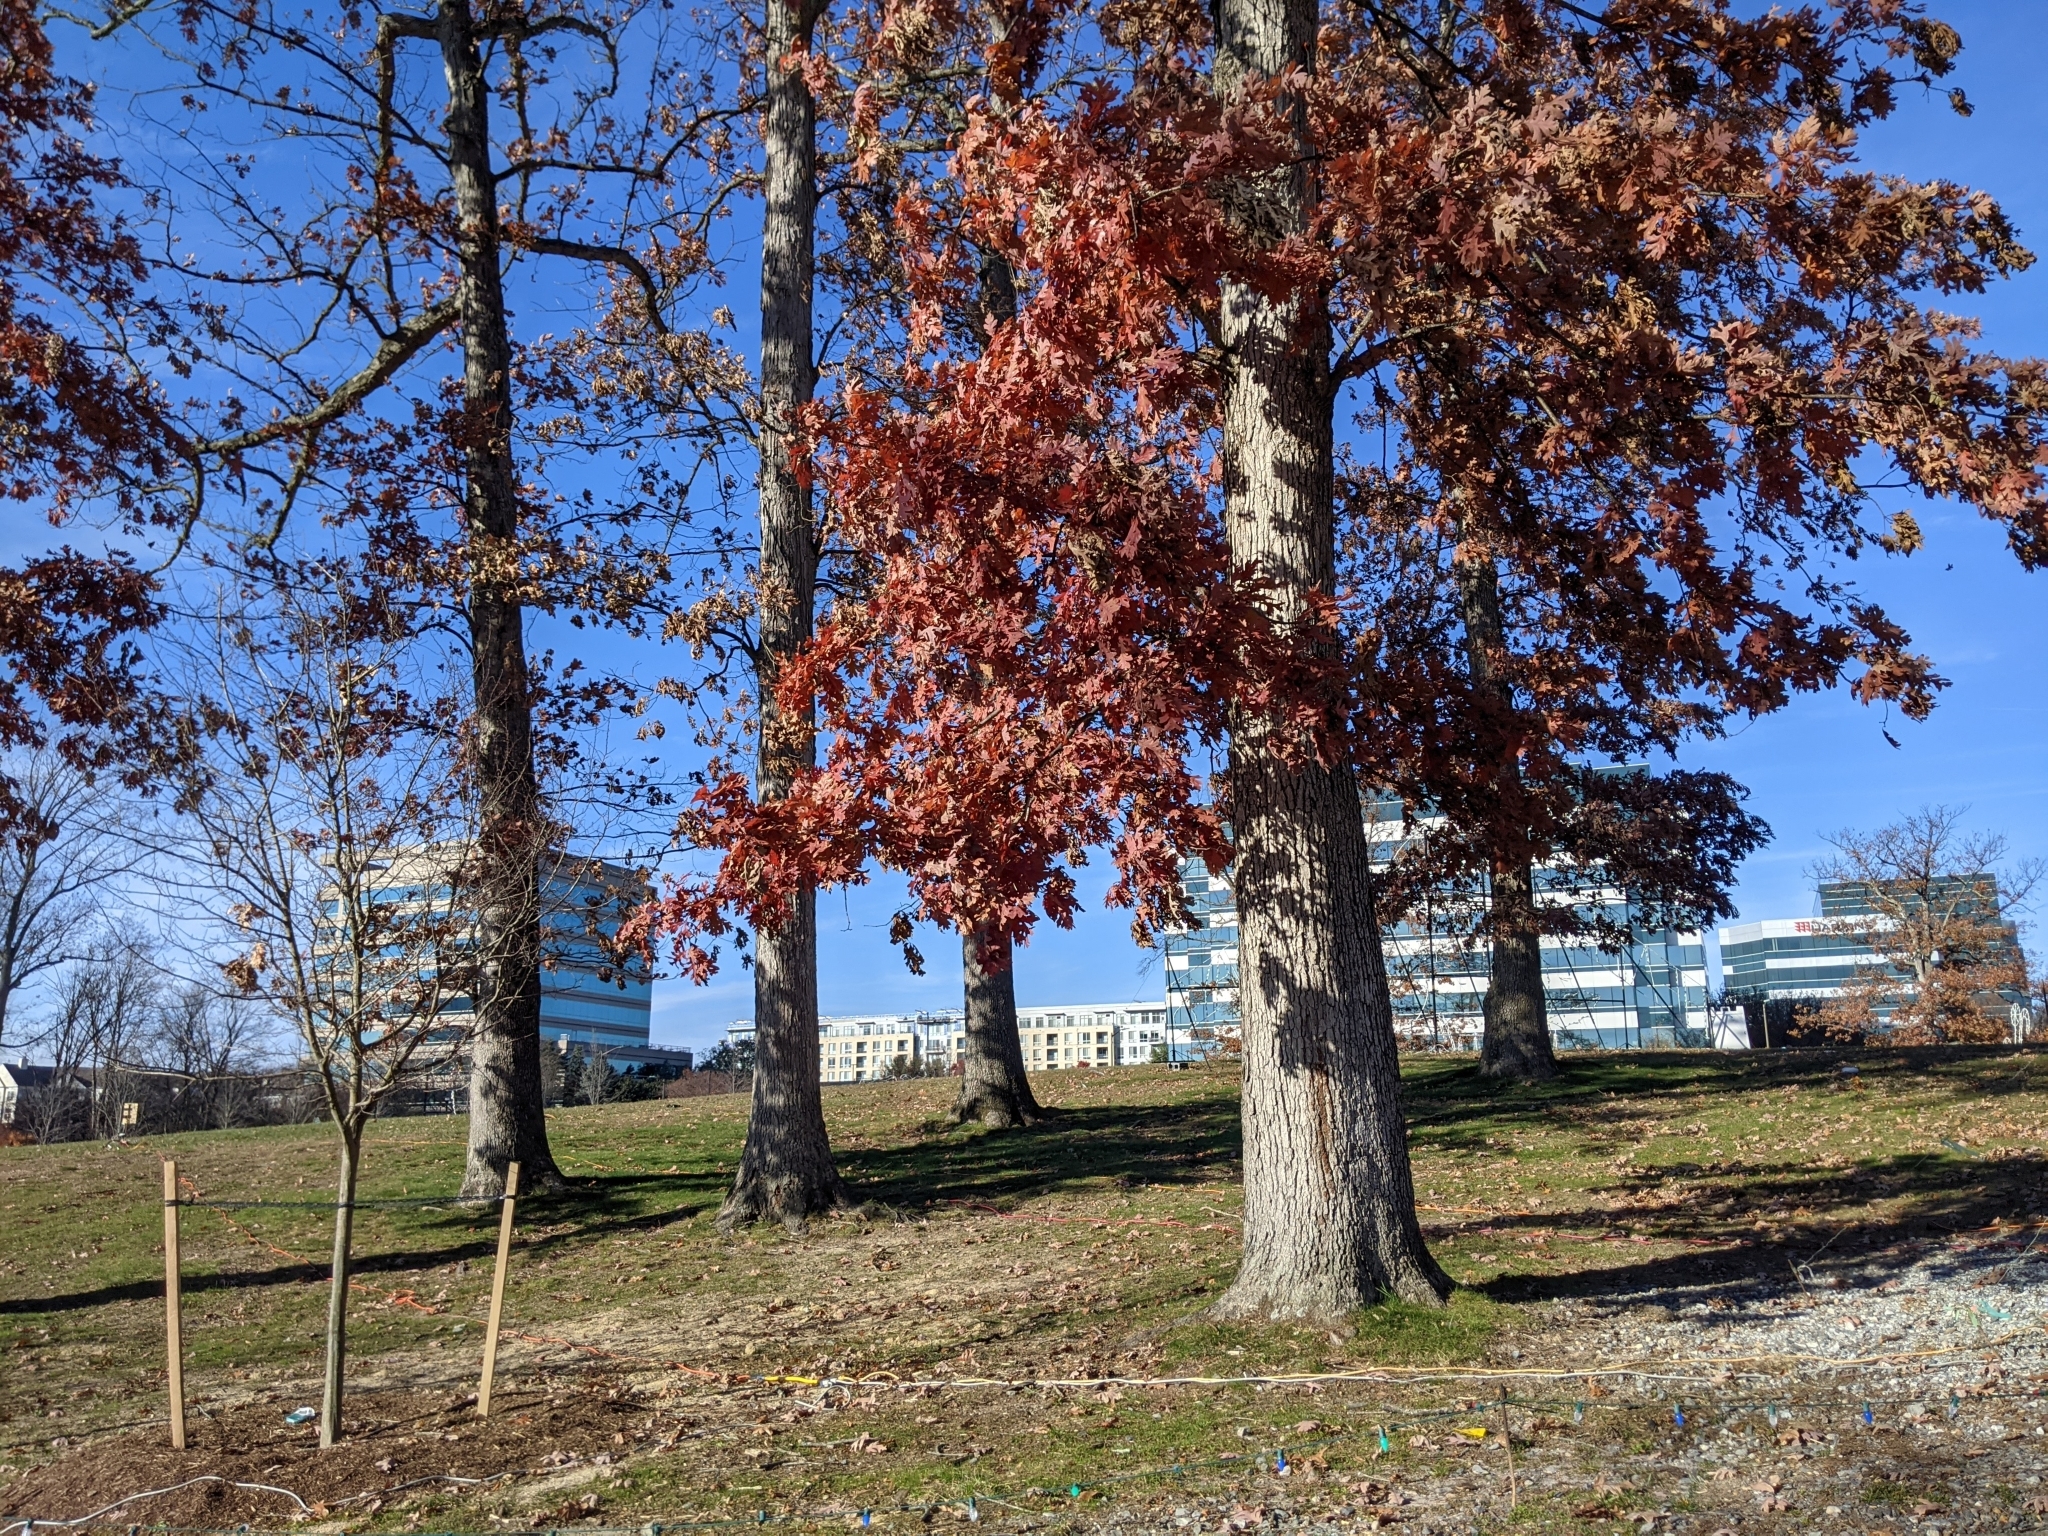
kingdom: Plantae
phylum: Tracheophyta
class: Magnoliopsida
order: Fagales
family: Fagaceae
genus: Quercus
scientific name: Quercus alba
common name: White oak
